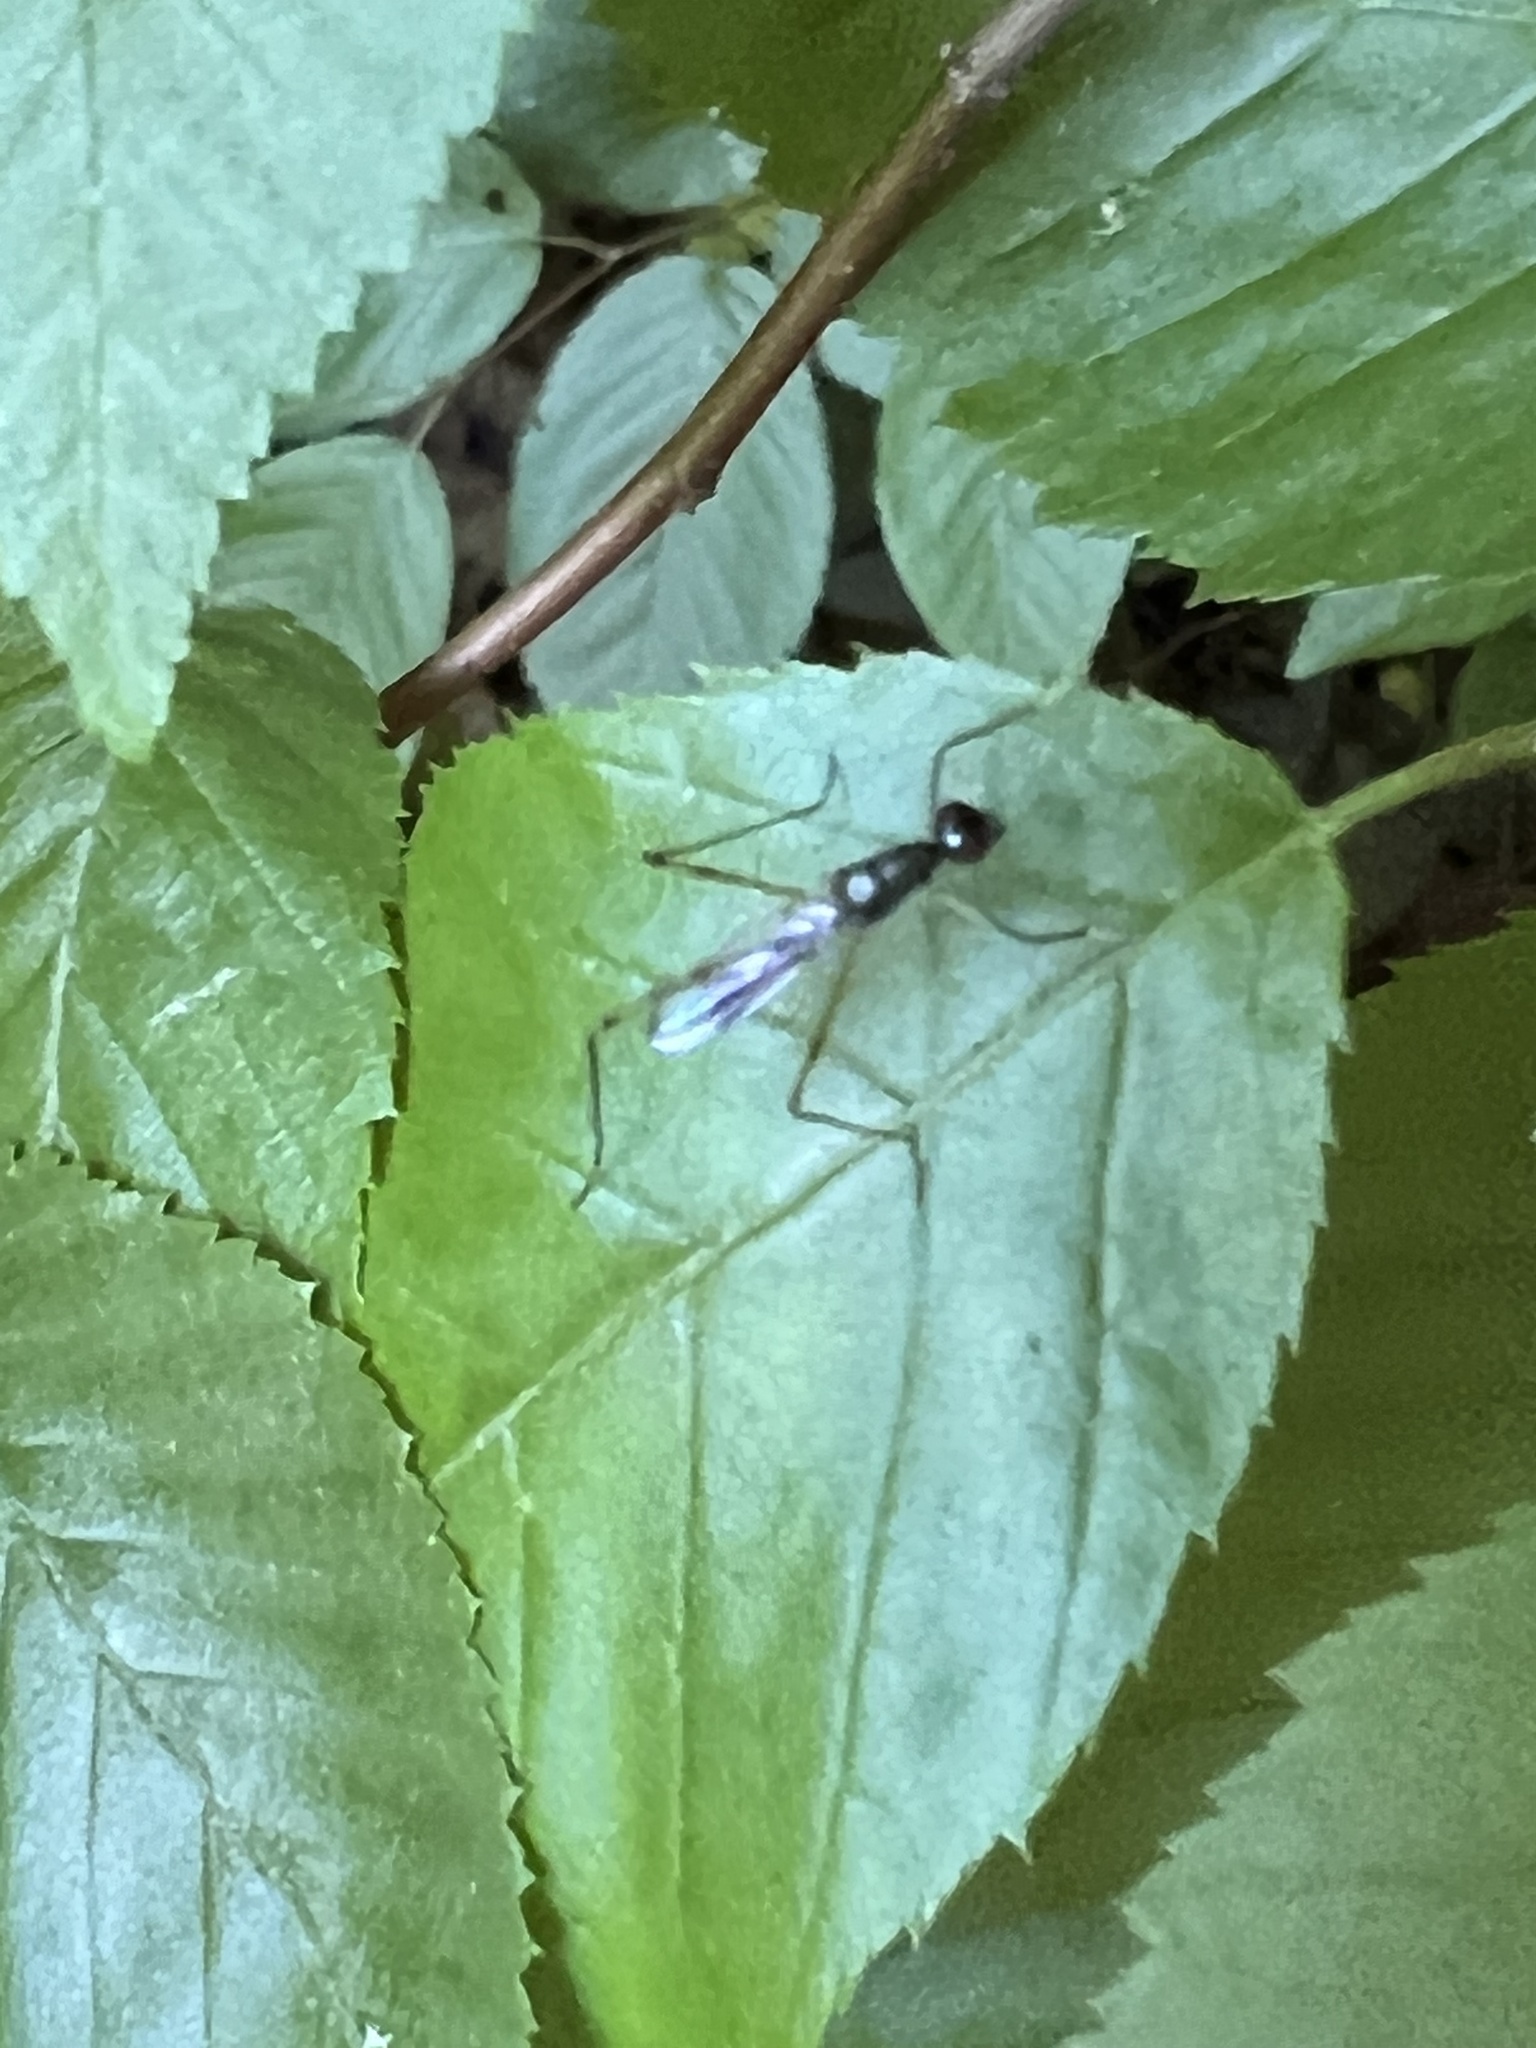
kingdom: Animalia
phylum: Arthropoda
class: Insecta
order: Diptera
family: Micropezidae
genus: Rainieria
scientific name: Rainieria antennaepes
